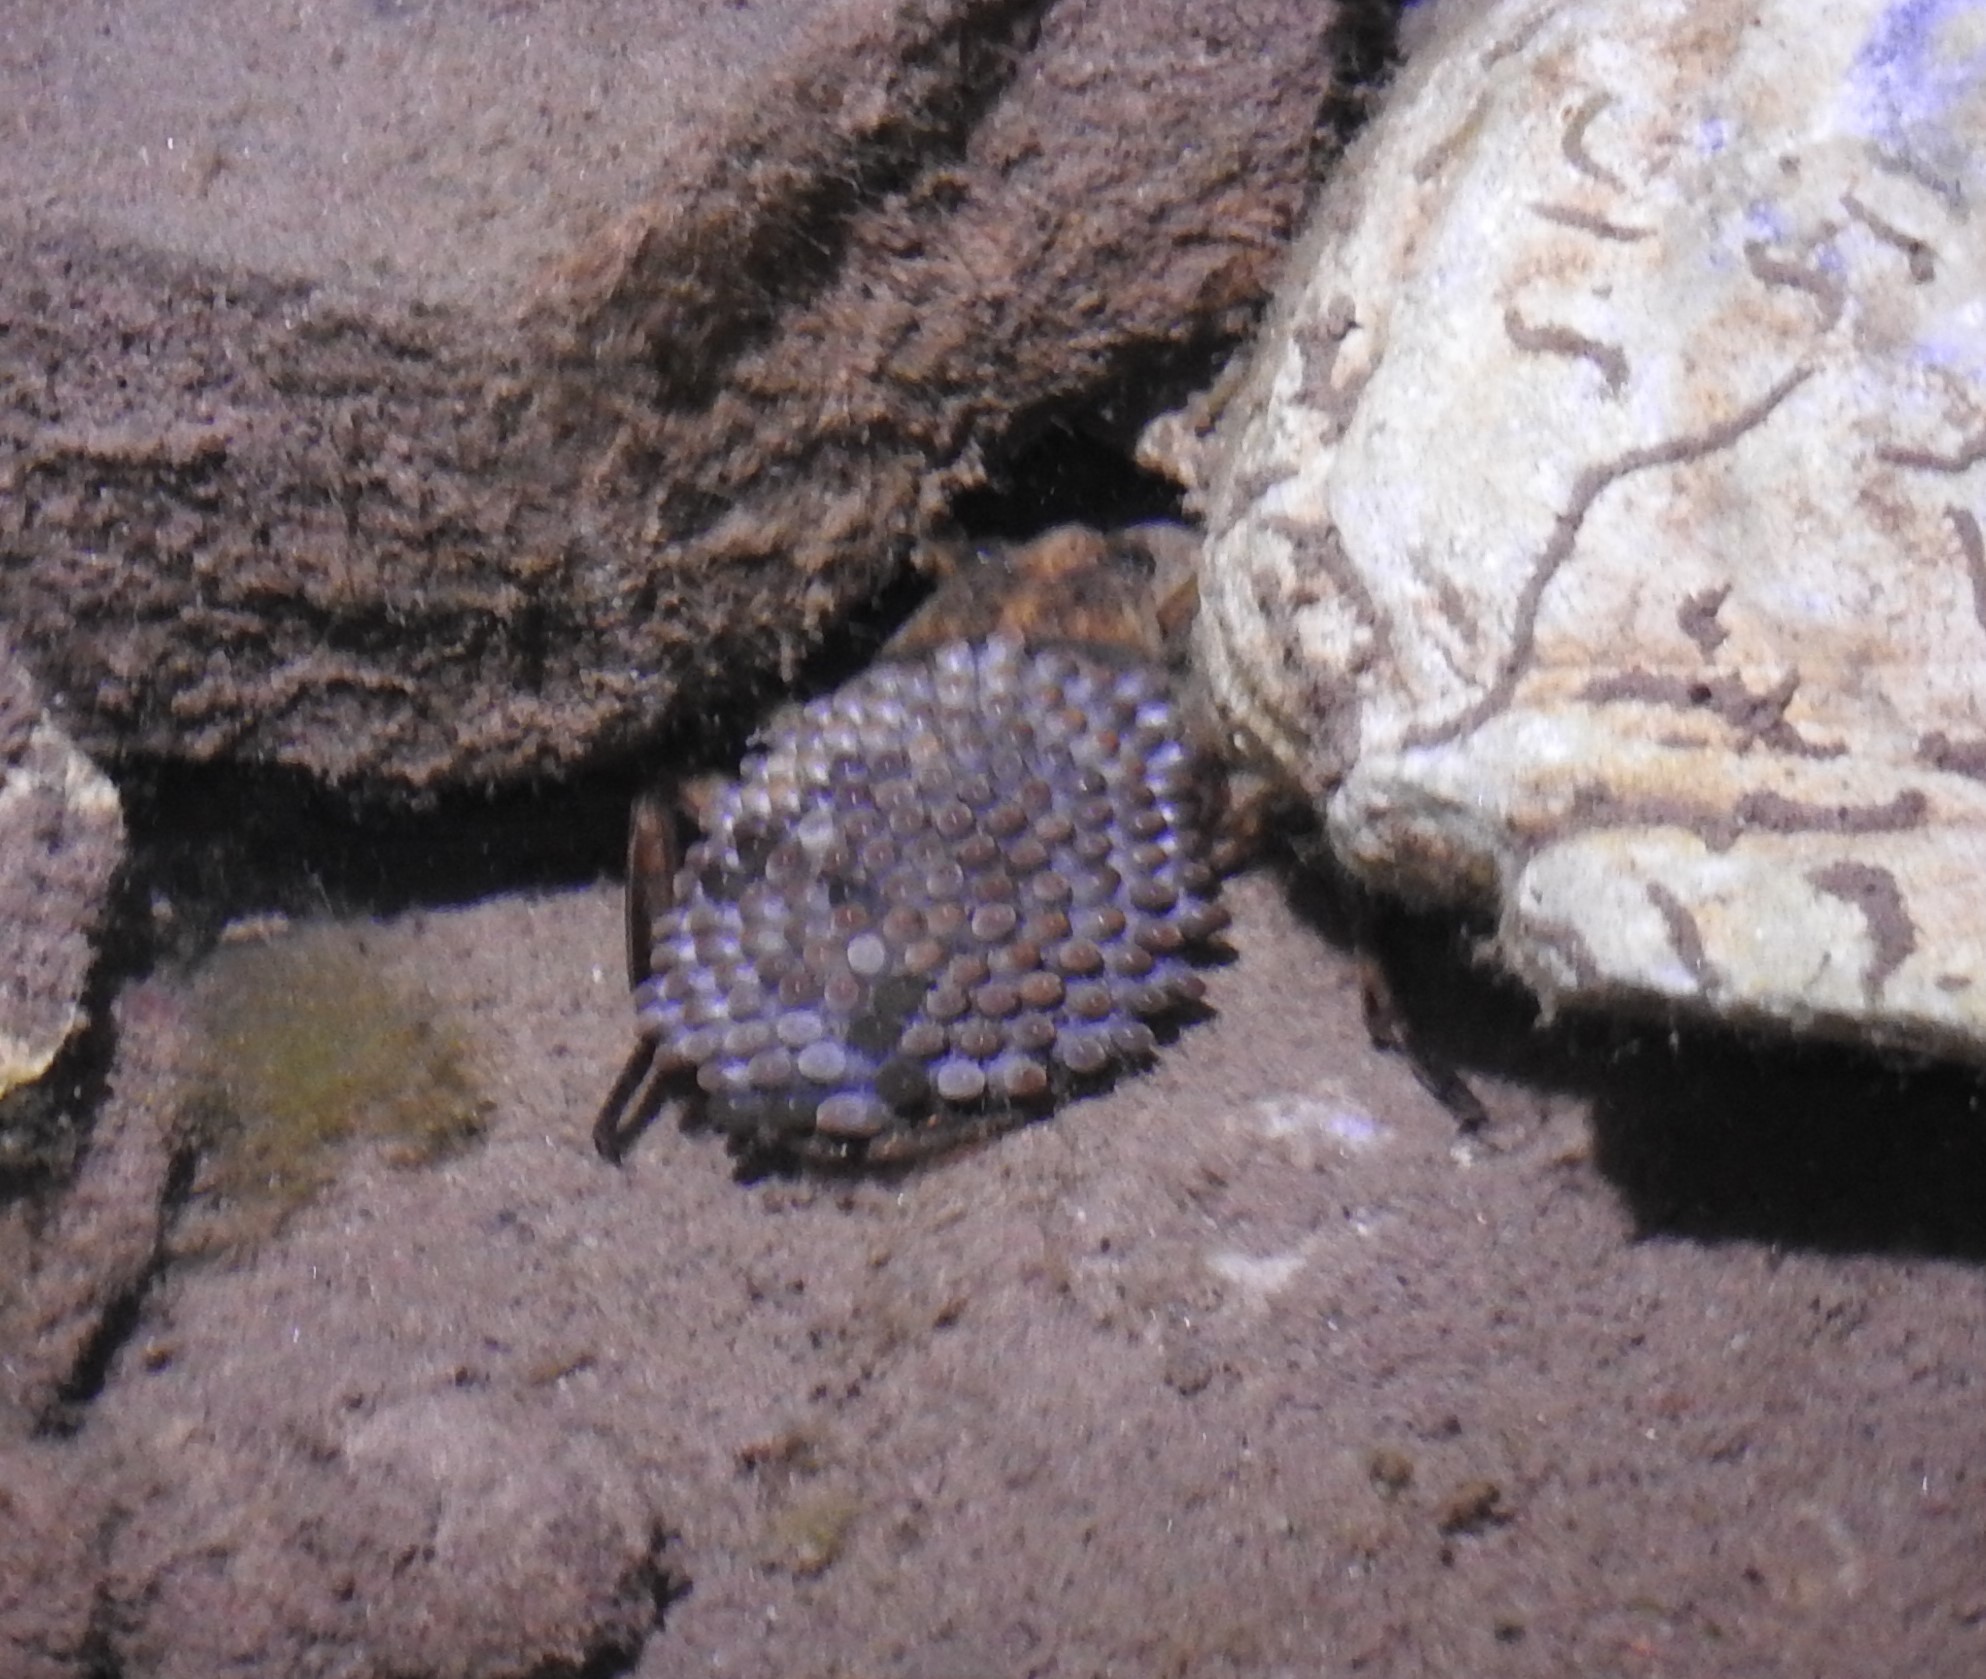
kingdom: Animalia
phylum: Arthropoda
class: Insecta
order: Hemiptera
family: Belostomatidae
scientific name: Belostomatidae
